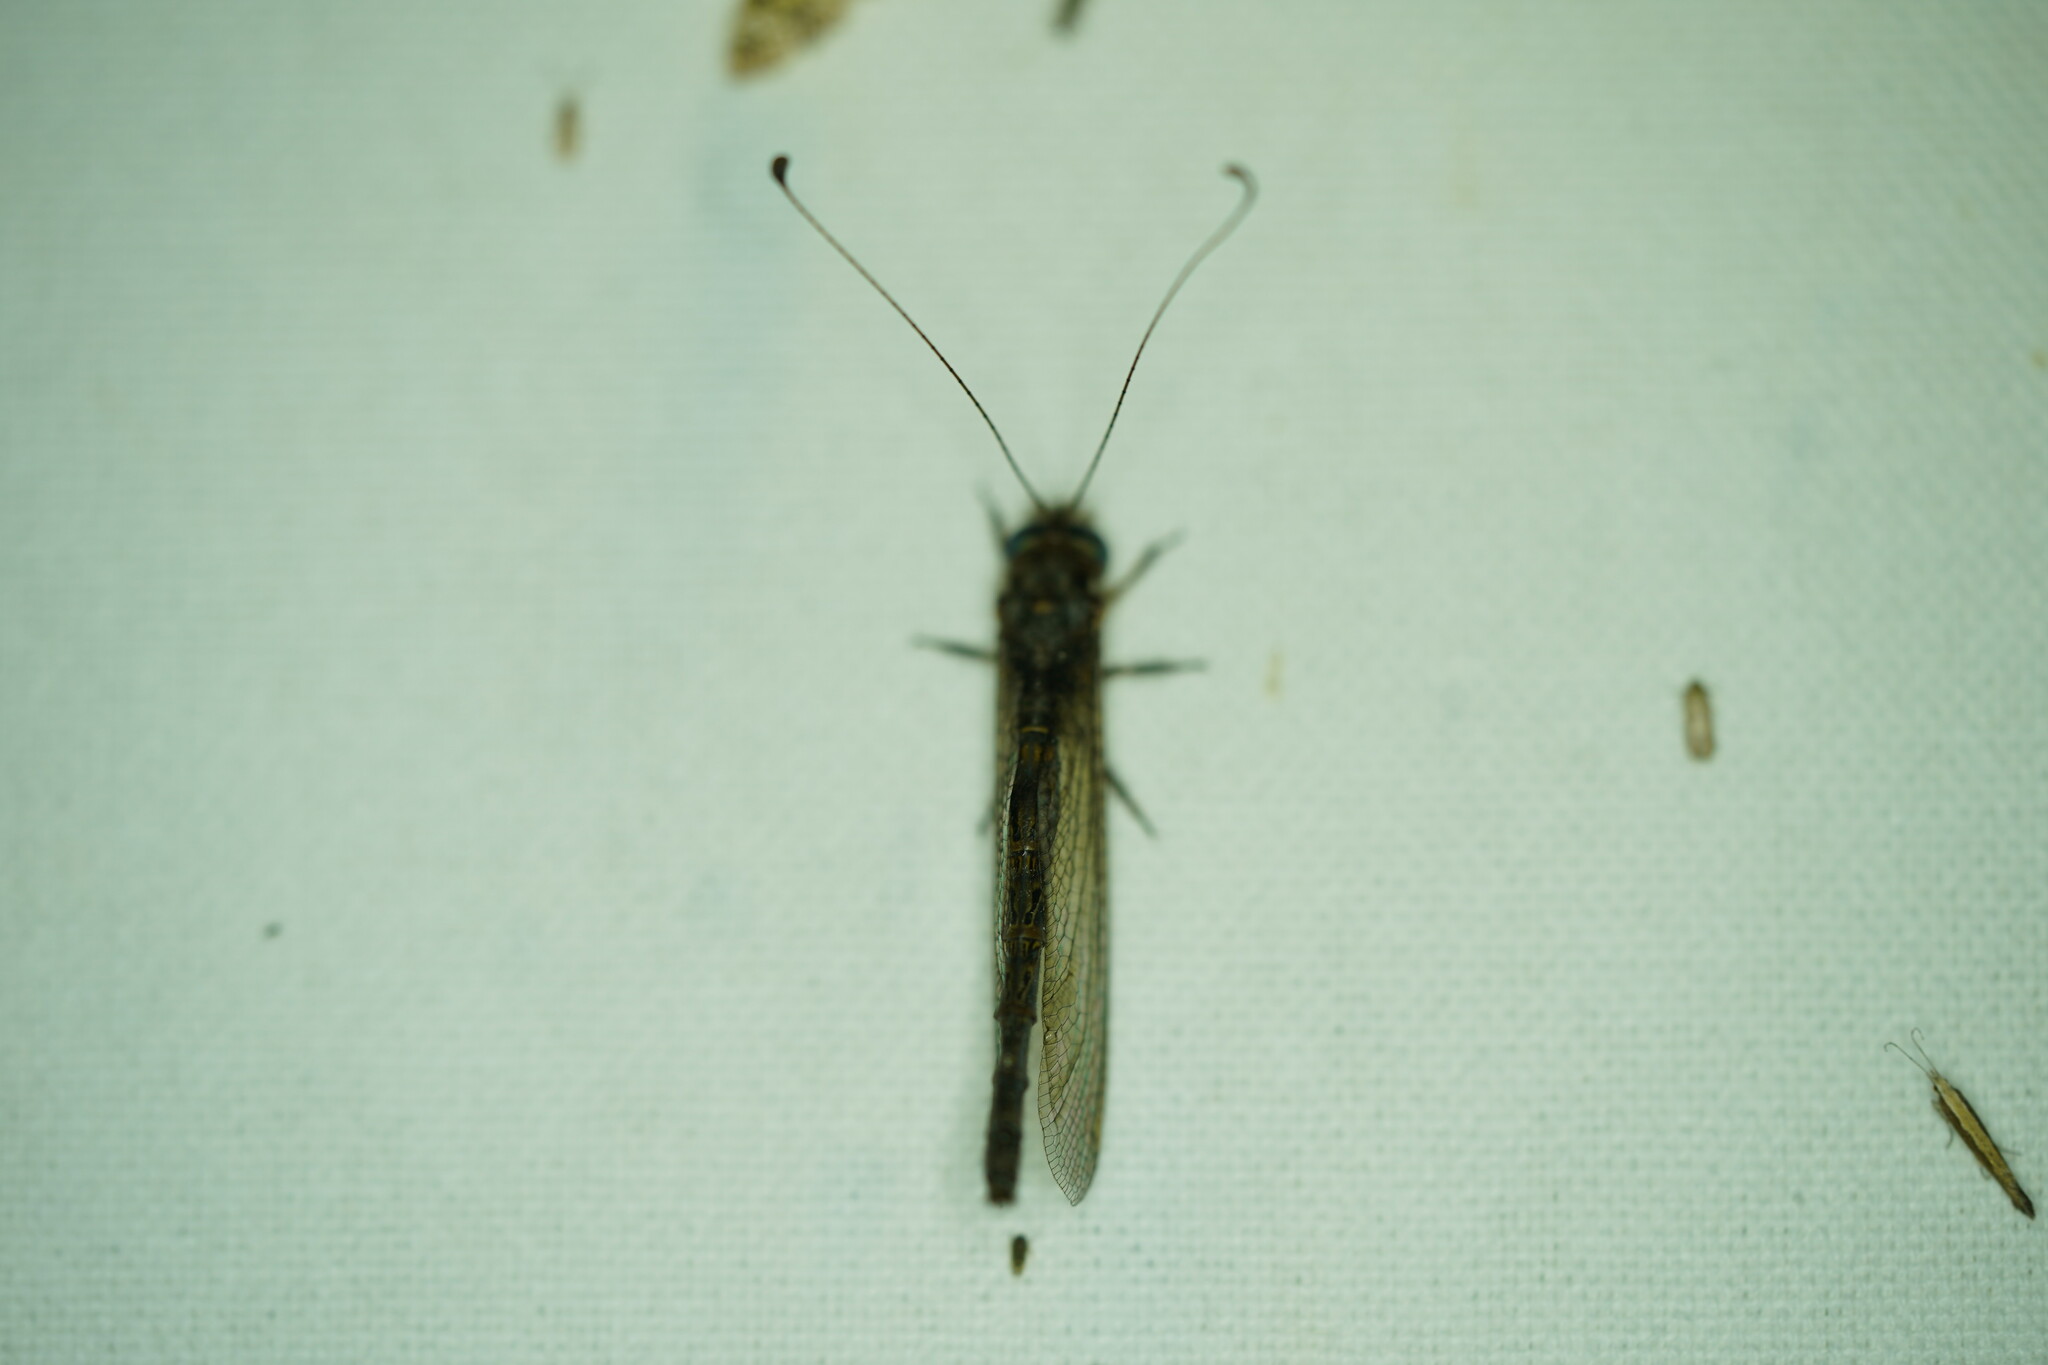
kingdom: Animalia
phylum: Arthropoda
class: Insecta
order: Neuroptera
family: Ascalaphidae
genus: Ululodes
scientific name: Ululodes quadripunctatus
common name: Four-spotted owlfly
